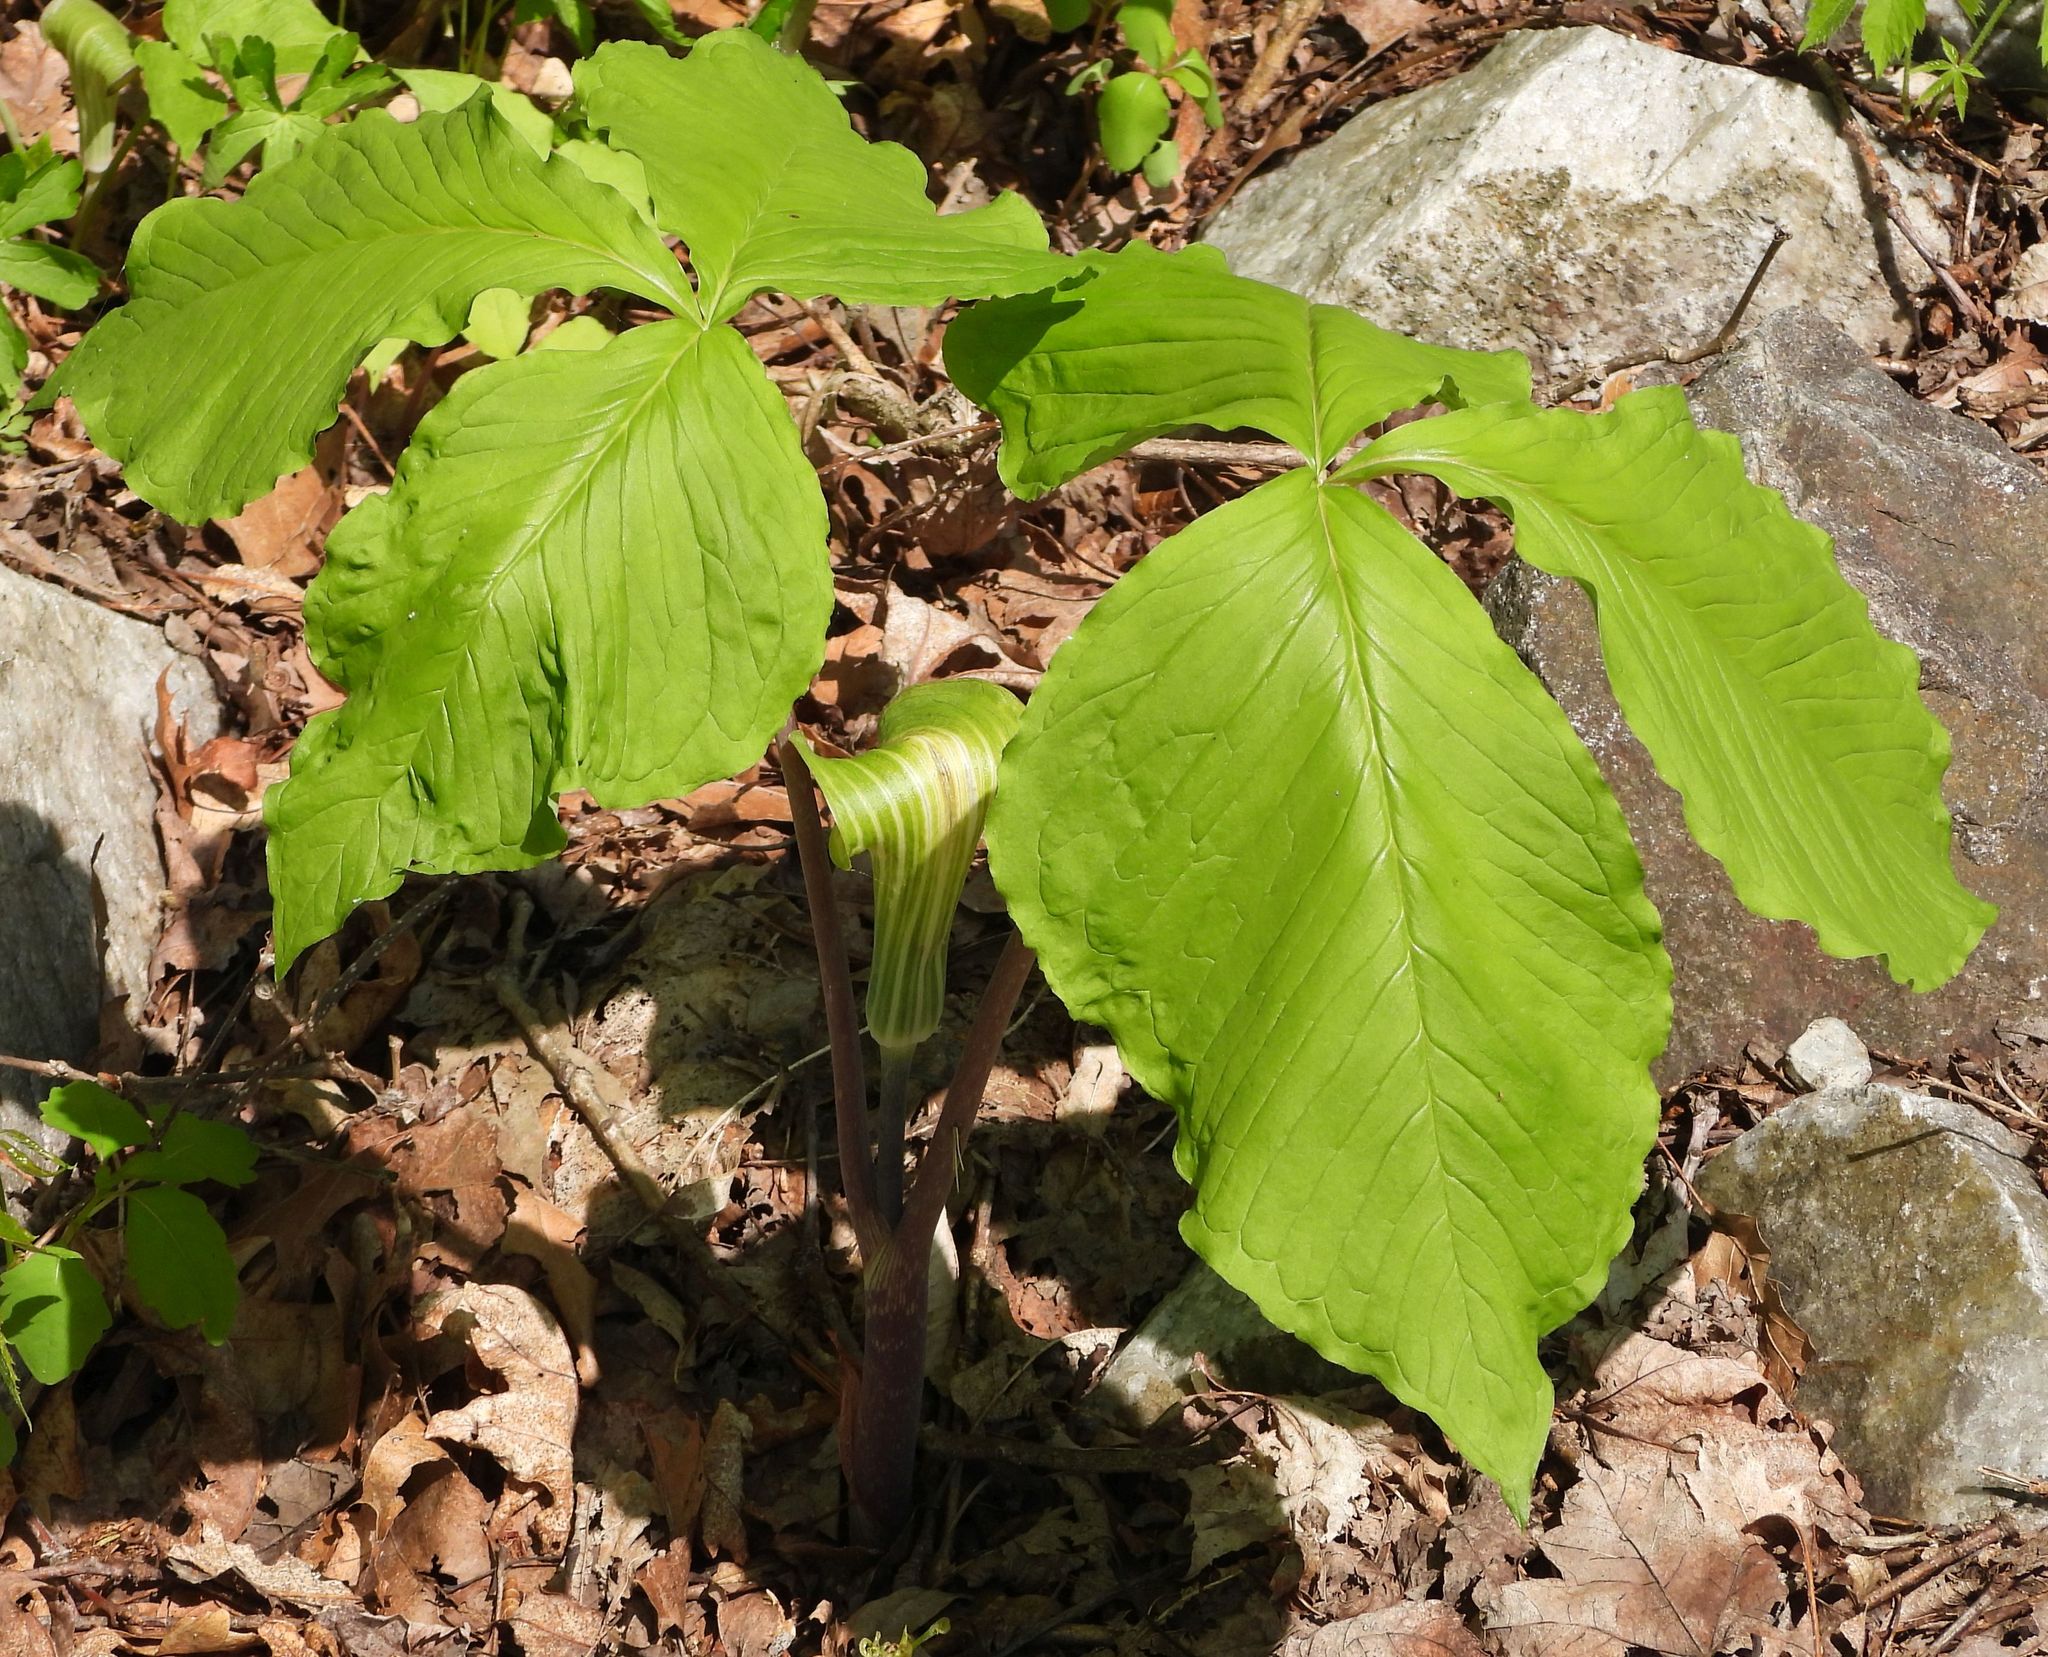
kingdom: Plantae
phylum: Tracheophyta
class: Liliopsida
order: Alismatales
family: Araceae
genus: Arisaema
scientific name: Arisaema triphyllum
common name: Jack-in-the-pulpit
